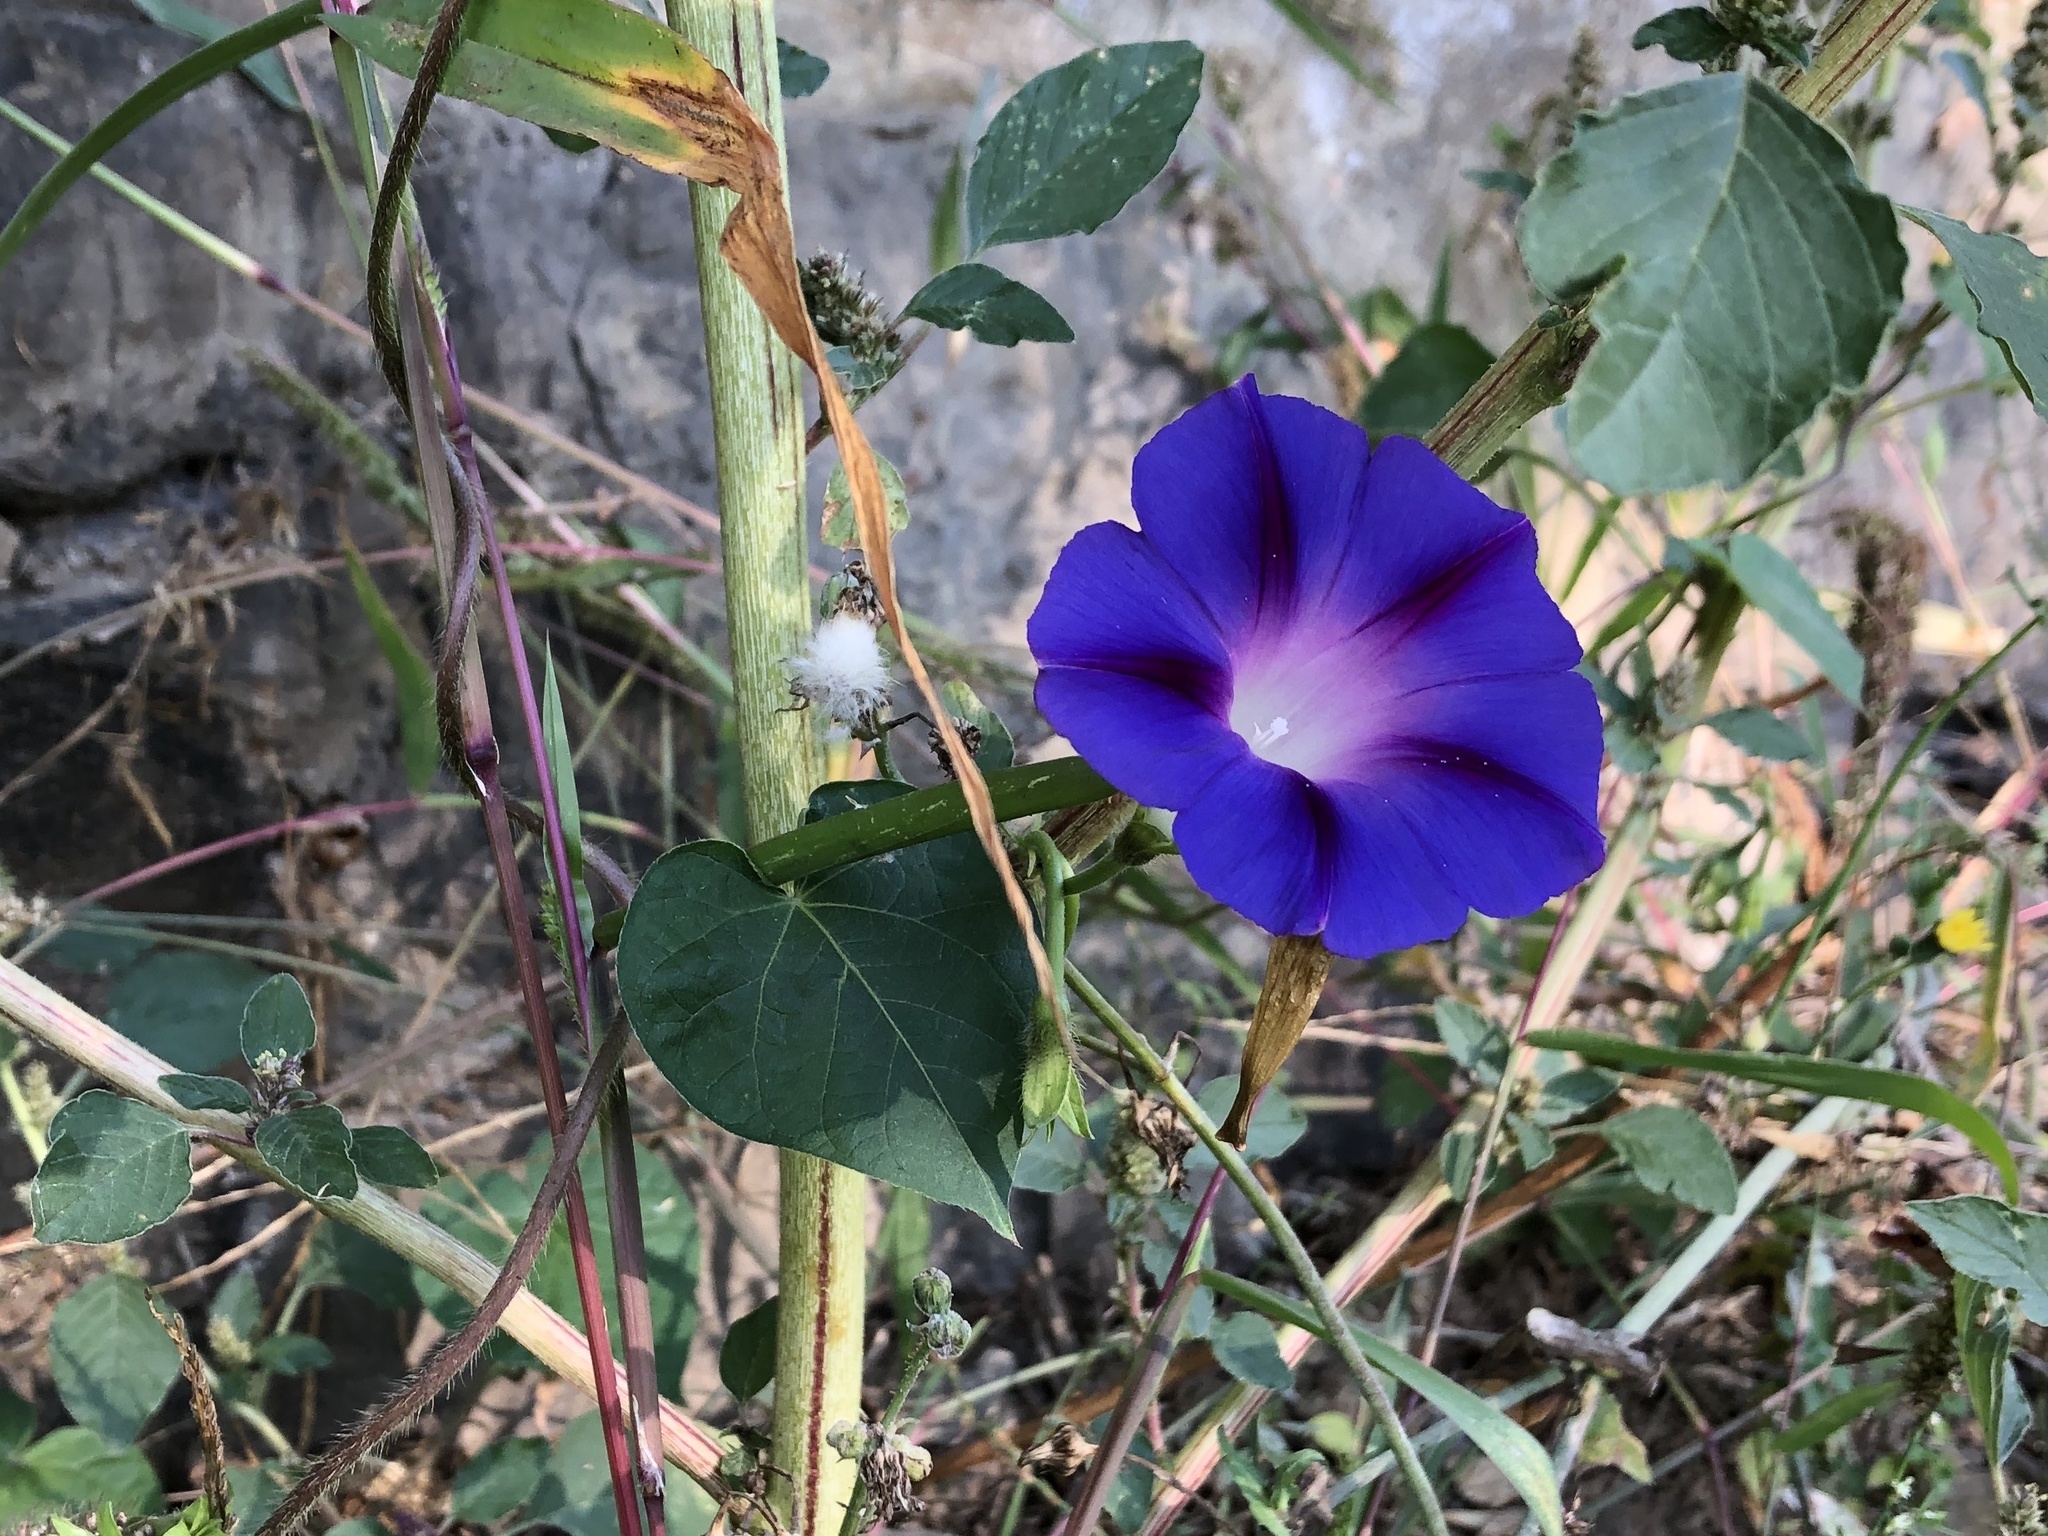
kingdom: Plantae
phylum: Tracheophyta
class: Magnoliopsida
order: Solanales
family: Convolvulaceae
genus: Ipomoea
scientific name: Ipomoea purpurea
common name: Common morning-glory
